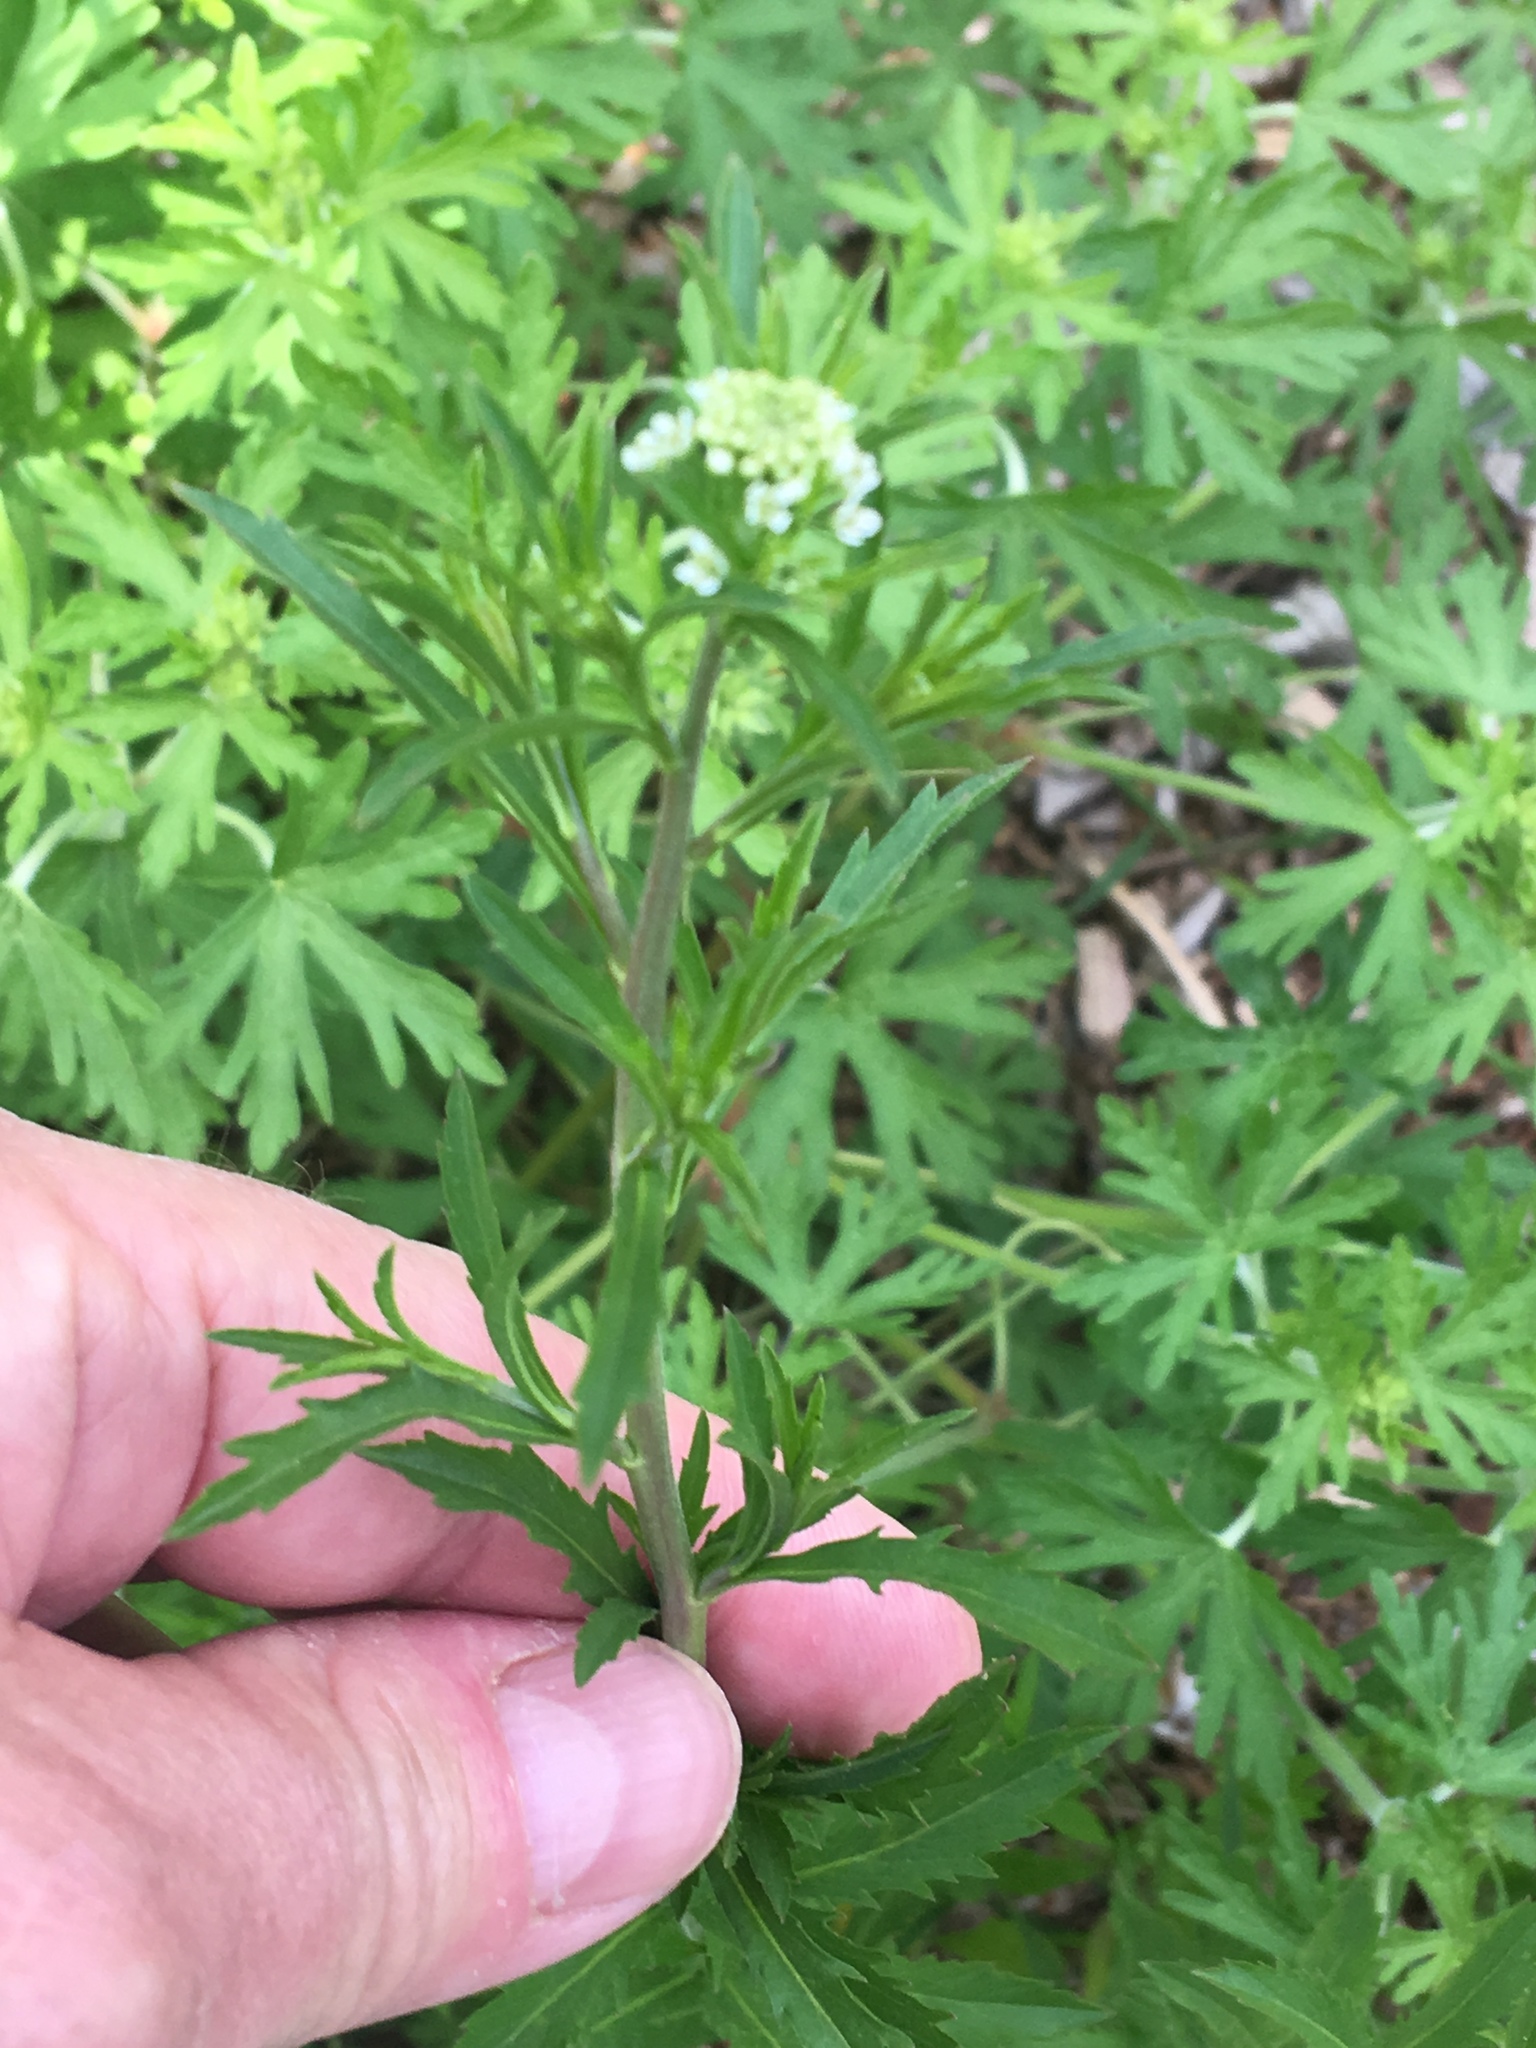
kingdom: Plantae
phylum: Tracheophyta
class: Magnoliopsida
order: Brassicales
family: Brassicaceae
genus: Lepidium
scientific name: Lepidium virginicum
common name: Least pepperwort
